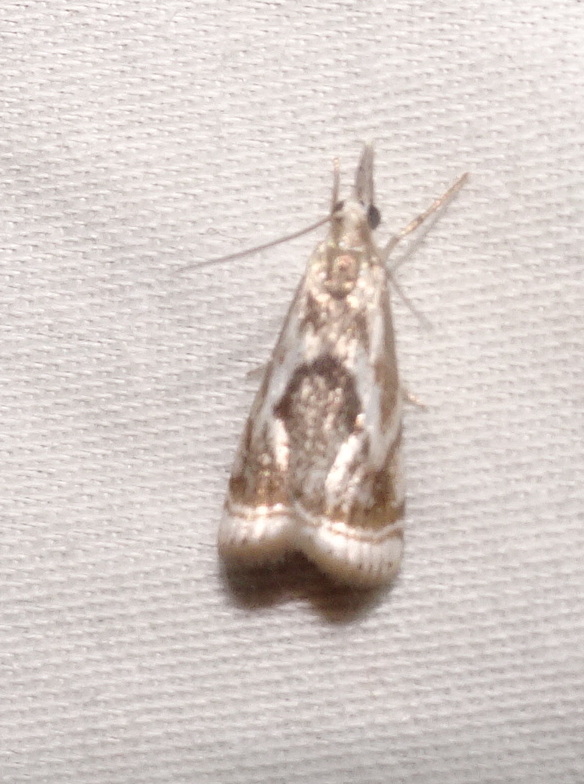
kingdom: Animalia
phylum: Arthropoda
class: Insecta
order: Lepidoptera
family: Crambidae
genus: Microcrambus
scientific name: Microcrambus elegans
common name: Elegant grass-veneer
